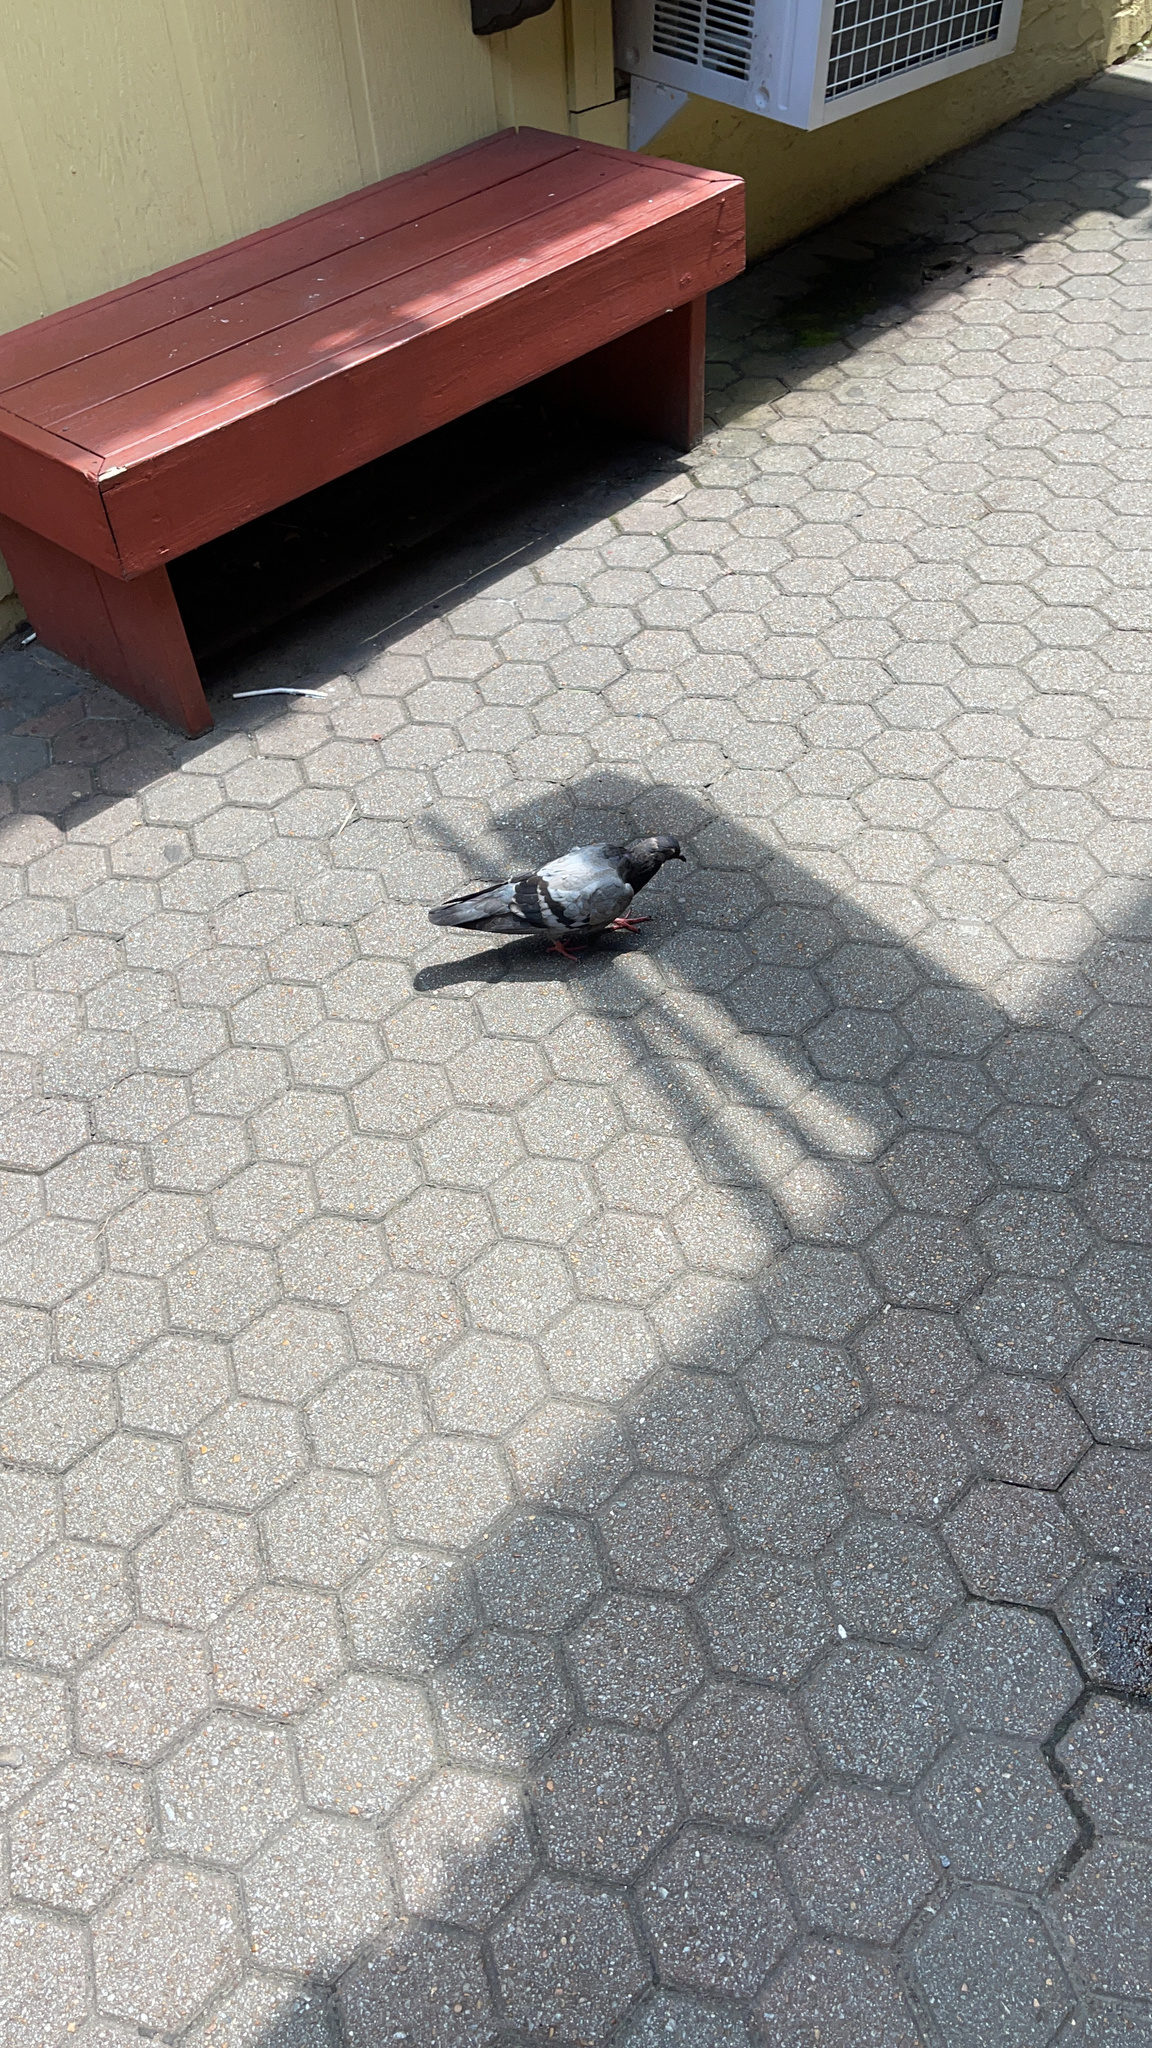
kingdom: Animalia
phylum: Chordata
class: Aves
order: Columbiformes
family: Columbidae
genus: Columba
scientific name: Columba livia
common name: Rock pigeon
